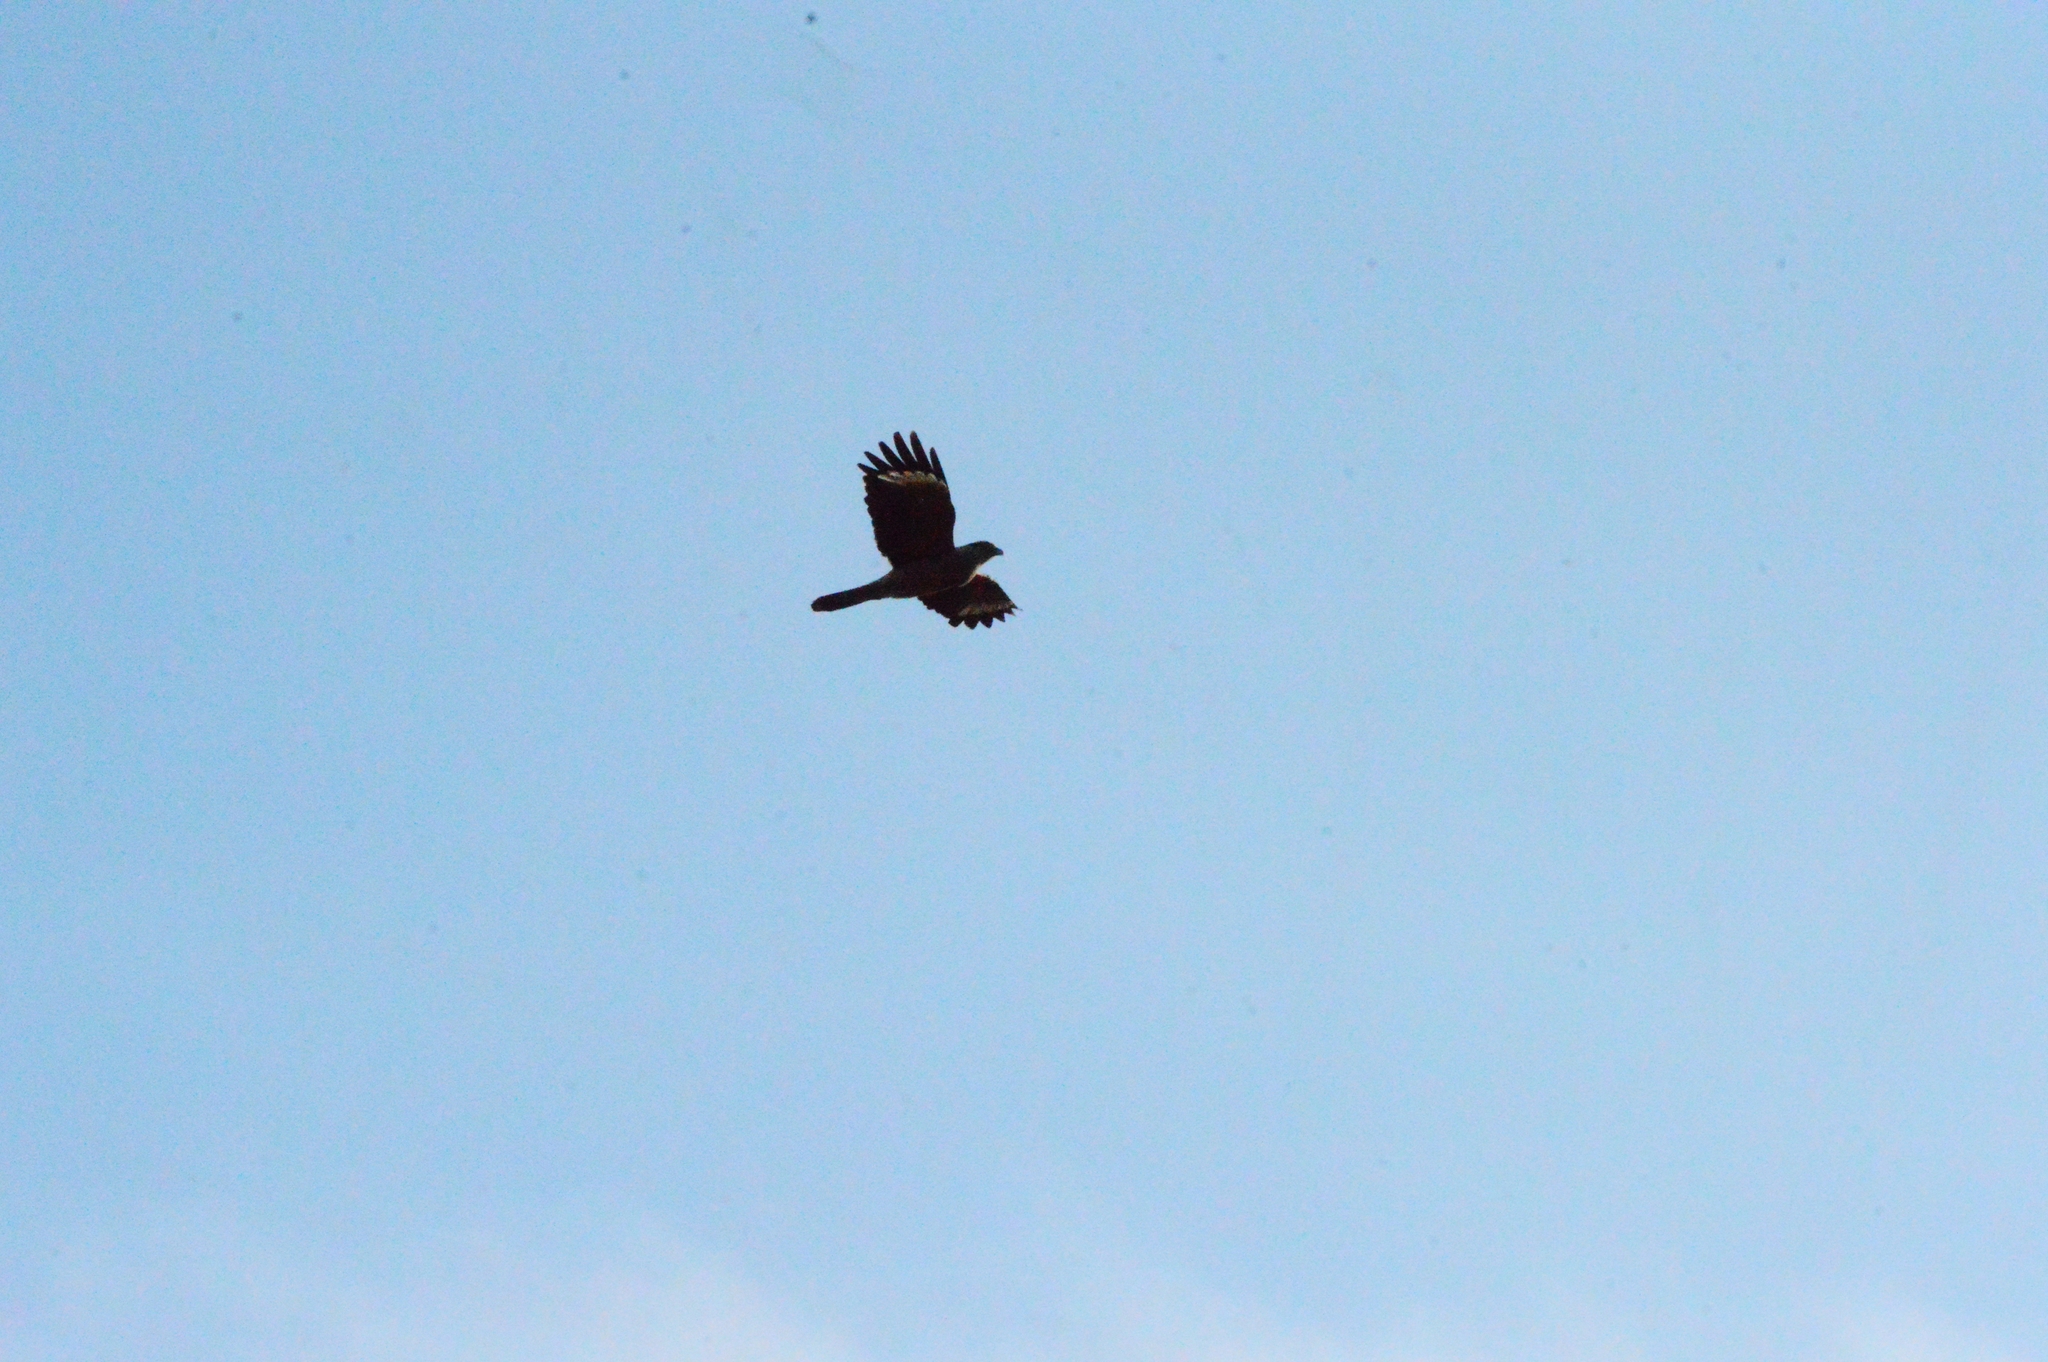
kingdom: Animalia
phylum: Chordata
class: Aves
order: Falconiformes
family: Falconidae
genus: Daptrius
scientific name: Daptrius
